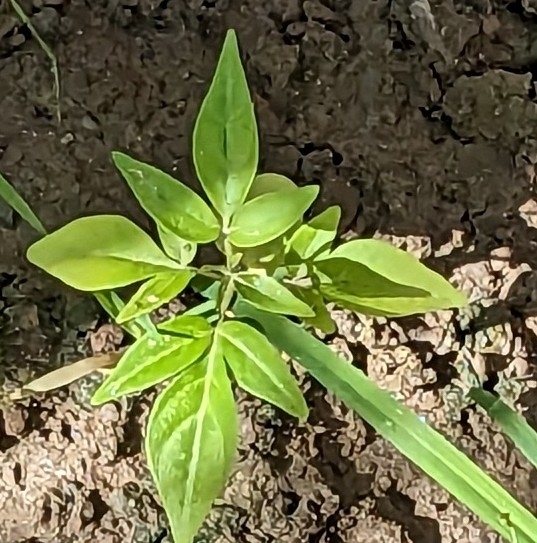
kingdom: Plantae
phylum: Tracheophyta
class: Magnoliopsida
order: Sapindales
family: Simaroubaceae
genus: Ailanthus
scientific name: Ailanthus altissima
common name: Tree-of-heaven
